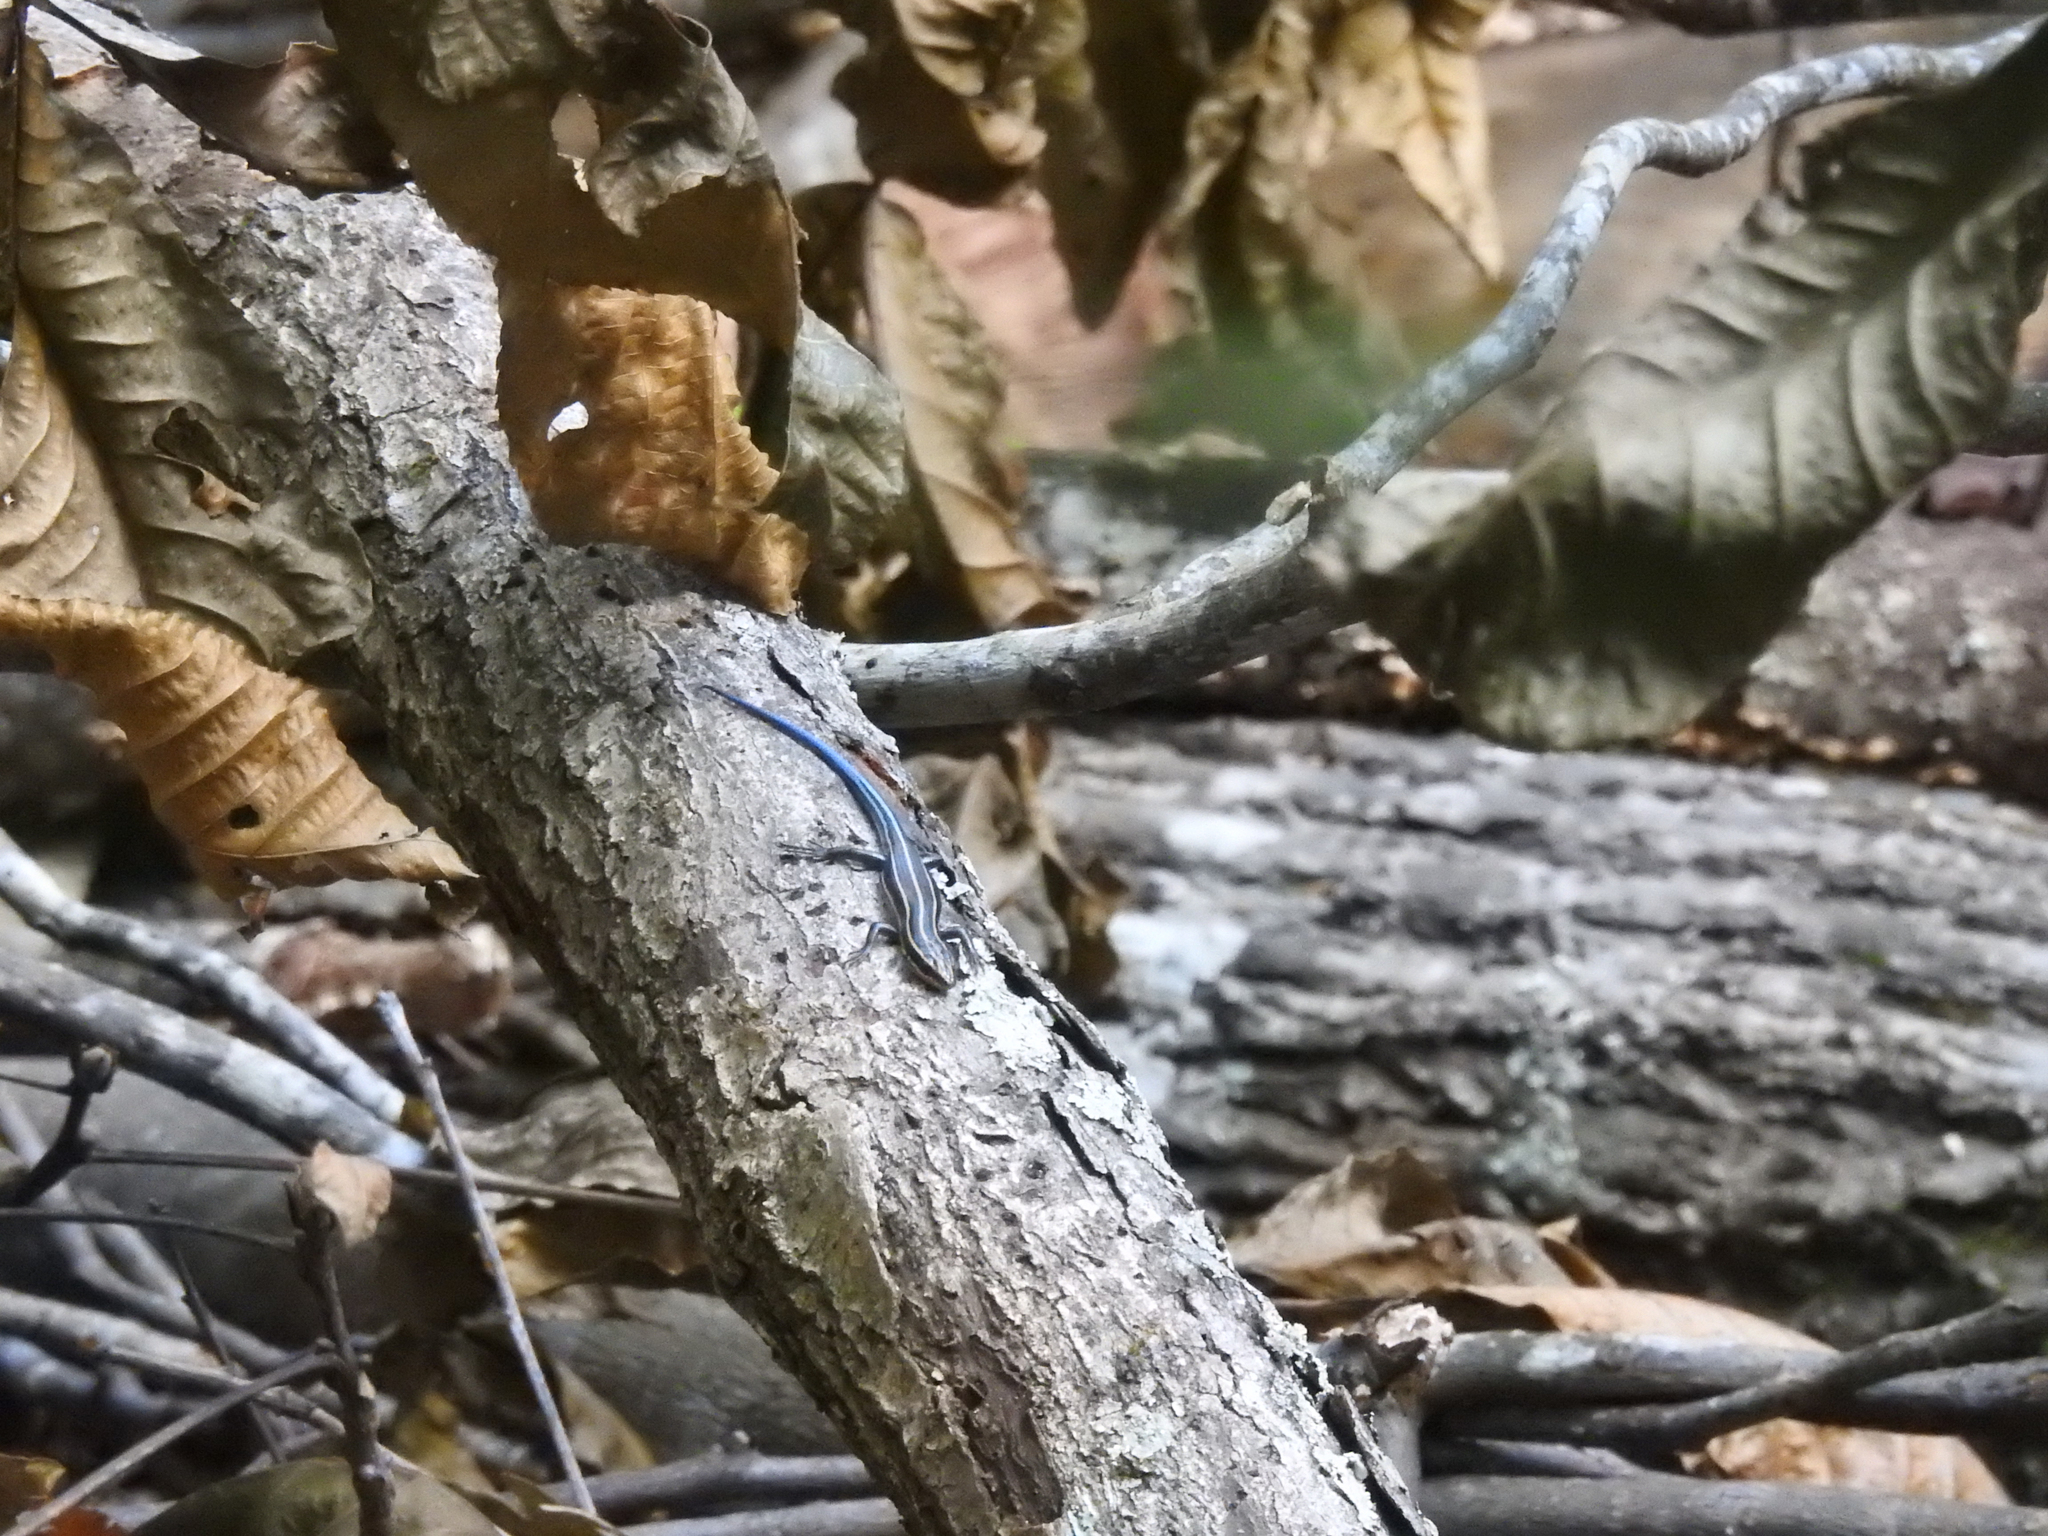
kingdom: Animalia
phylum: Chordata
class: Squamata
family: Scincidae
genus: Plestiodon
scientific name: Plestiodon
